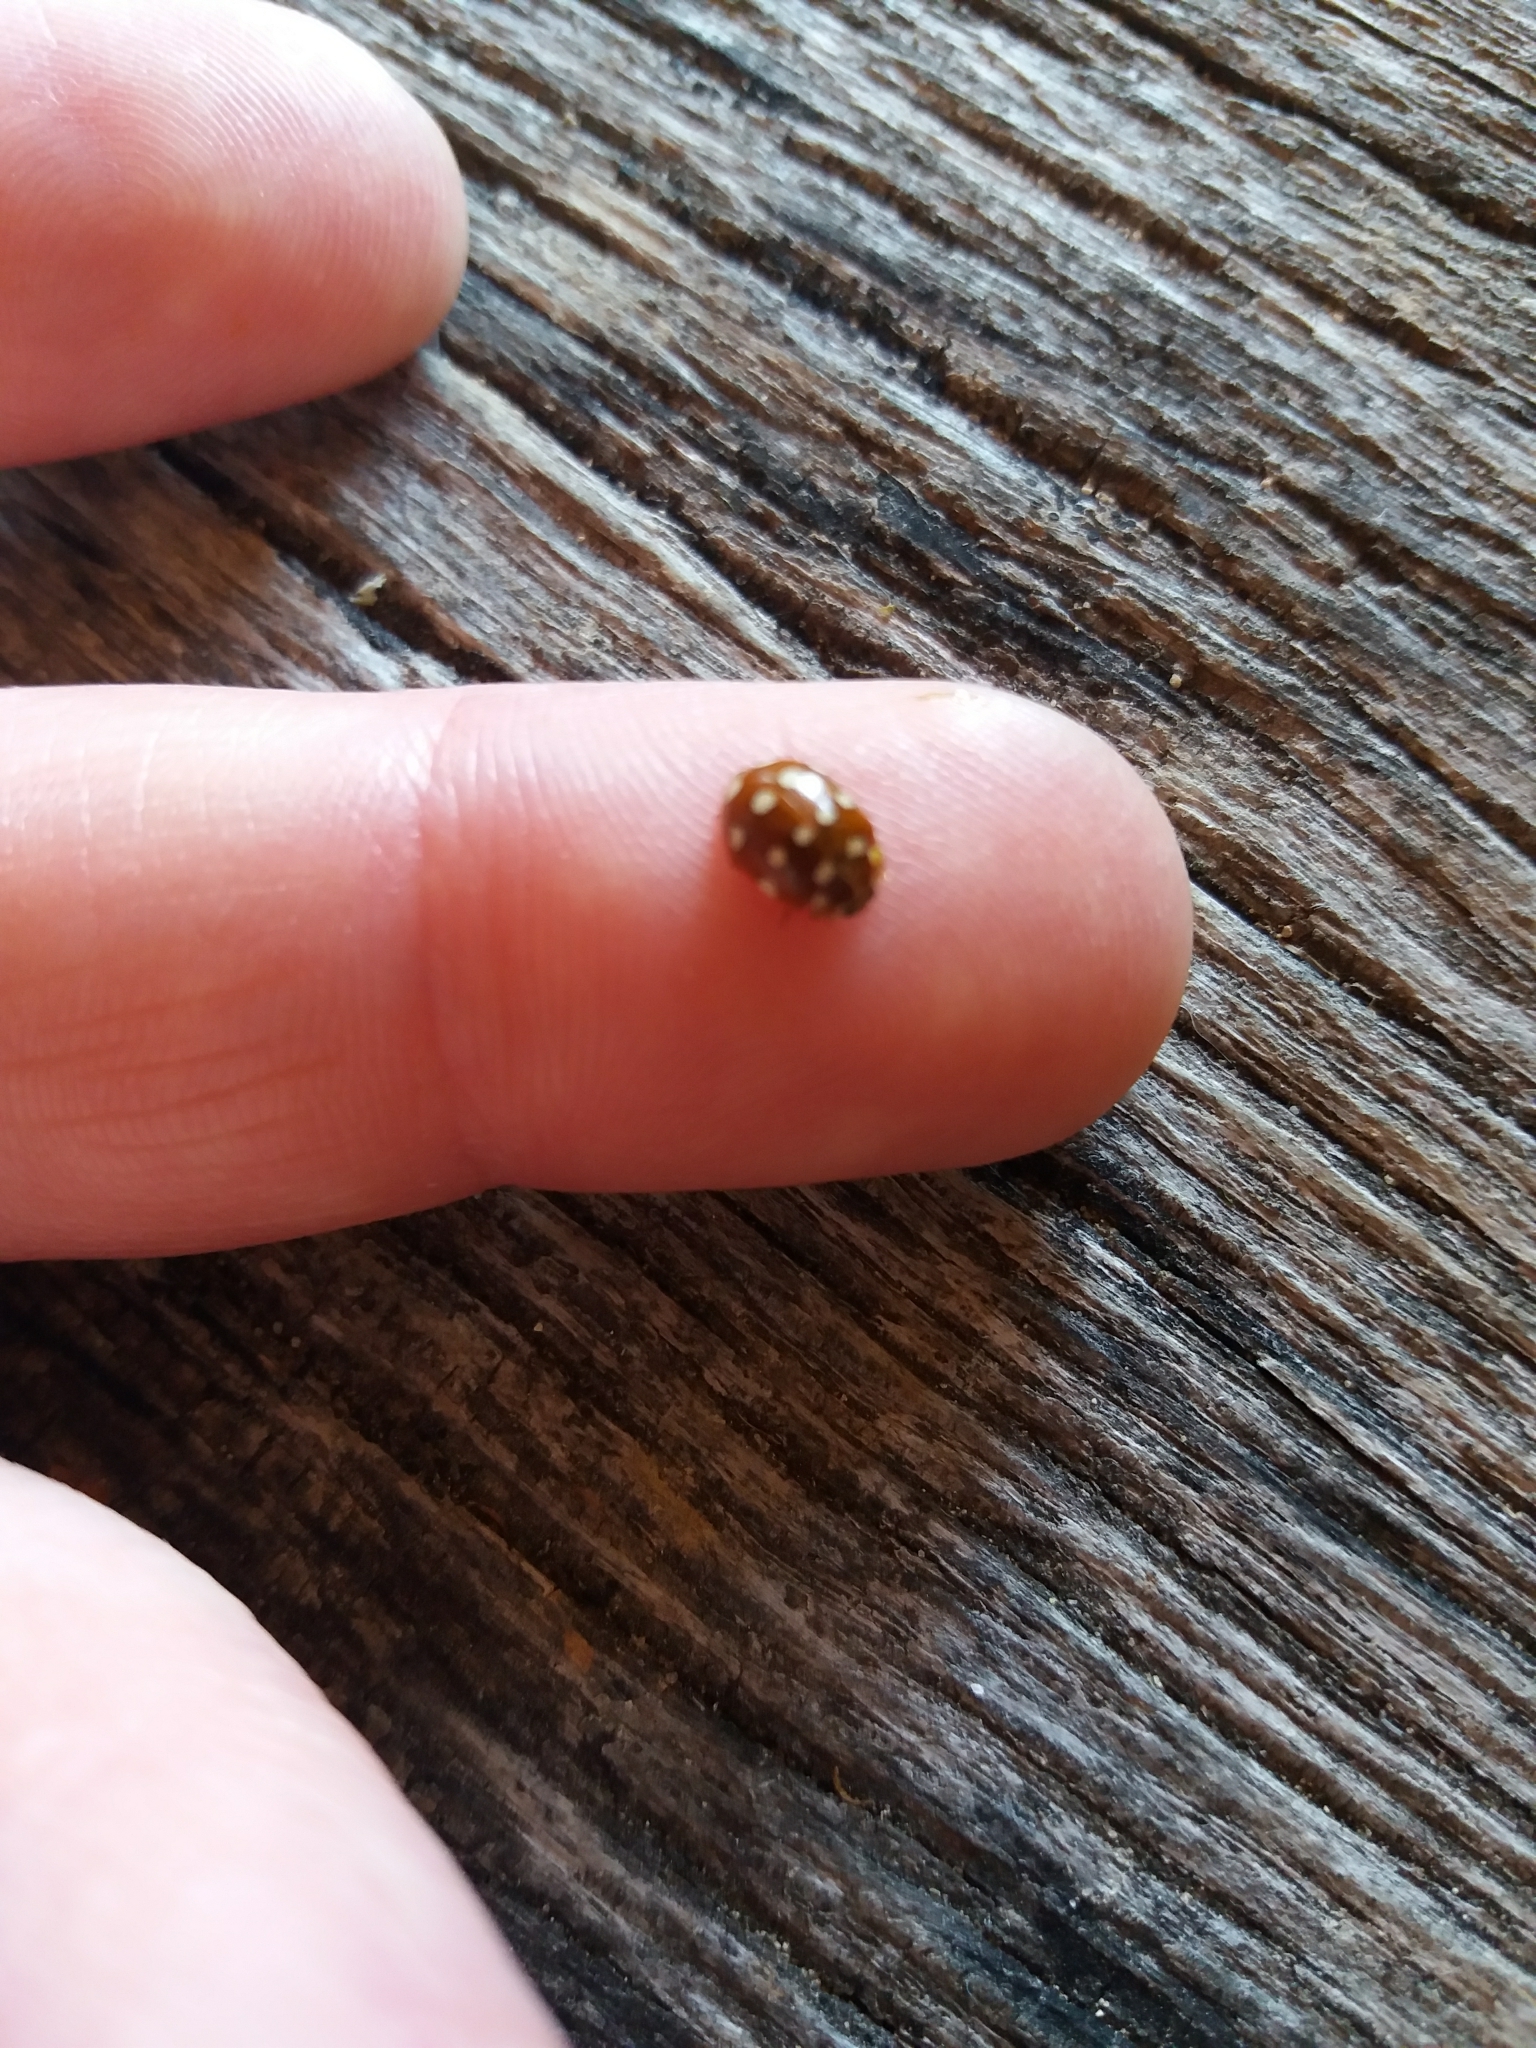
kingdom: Animalia
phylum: Arthropoda
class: Insecta
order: Coleoptera
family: Coccinellidae
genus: Calvia
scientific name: Calvia quatuordecimguttata
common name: Cream-spot ladybird
